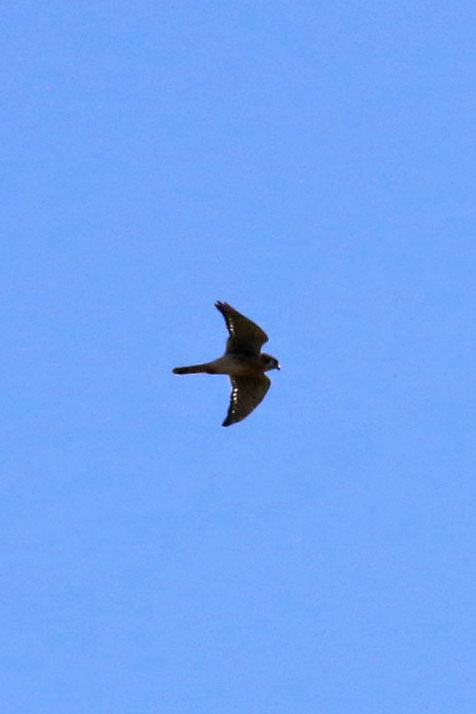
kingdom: Animalia
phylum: Chordata
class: Aves
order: Falconiformes
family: Falconidae
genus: Falco
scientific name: Falco sparverius
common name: American kestrel
